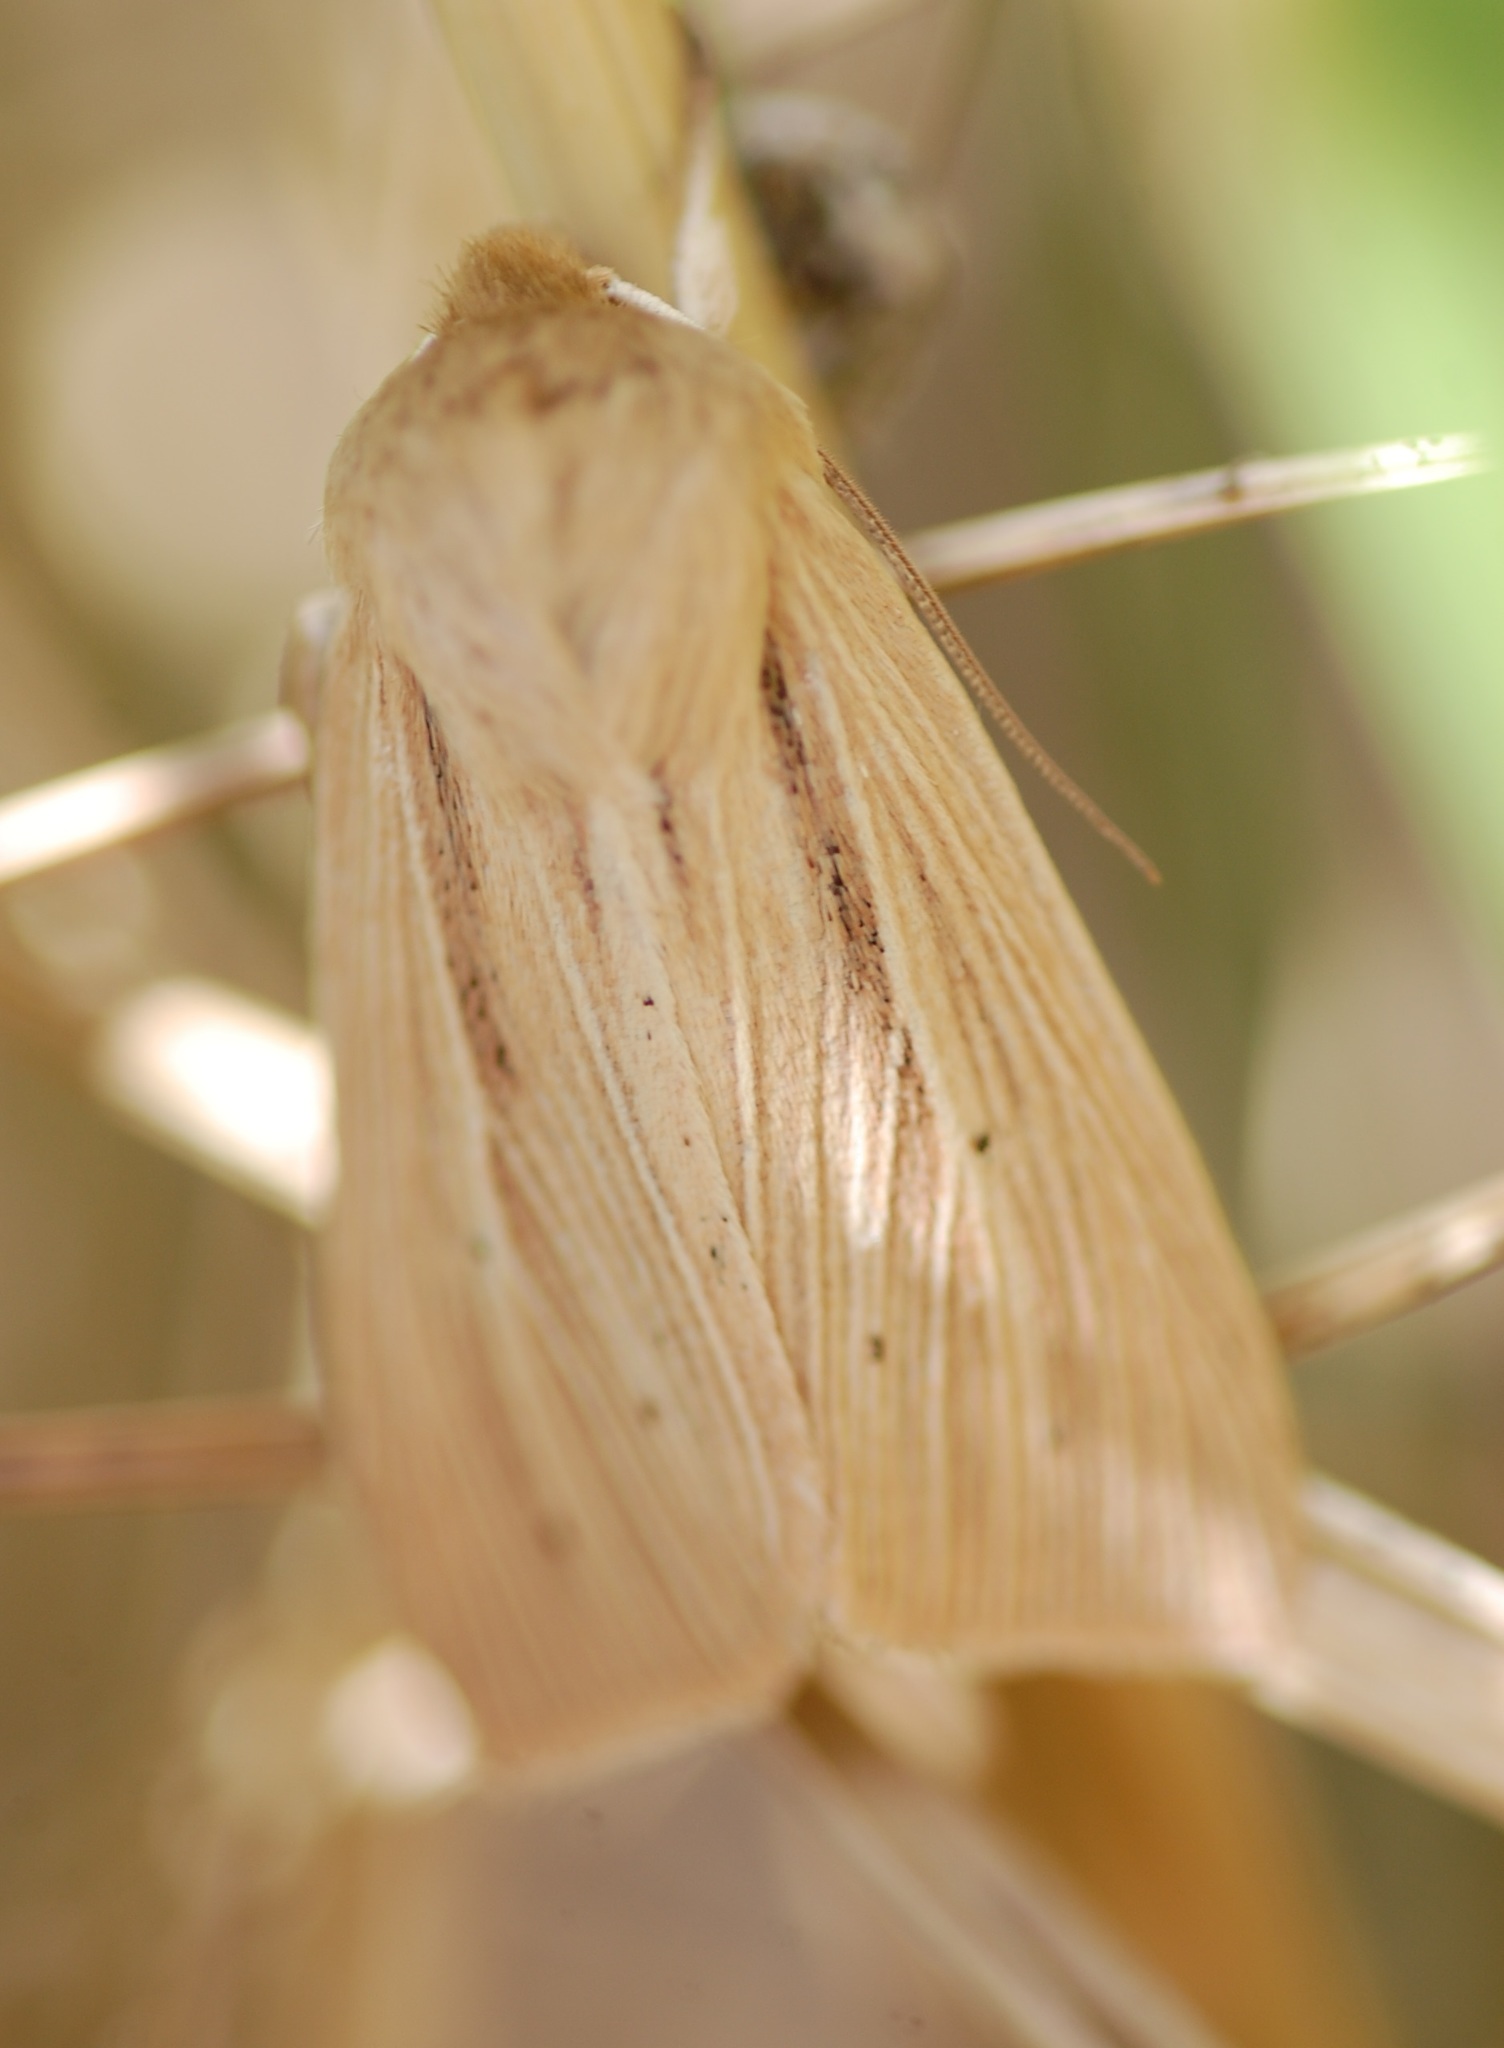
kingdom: Animalia
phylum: Arthropoda
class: Insecta
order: Lepidoptera
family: Noctuidae
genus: Mythimna
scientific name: Mythimna oxygala
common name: Lesser wainscot
